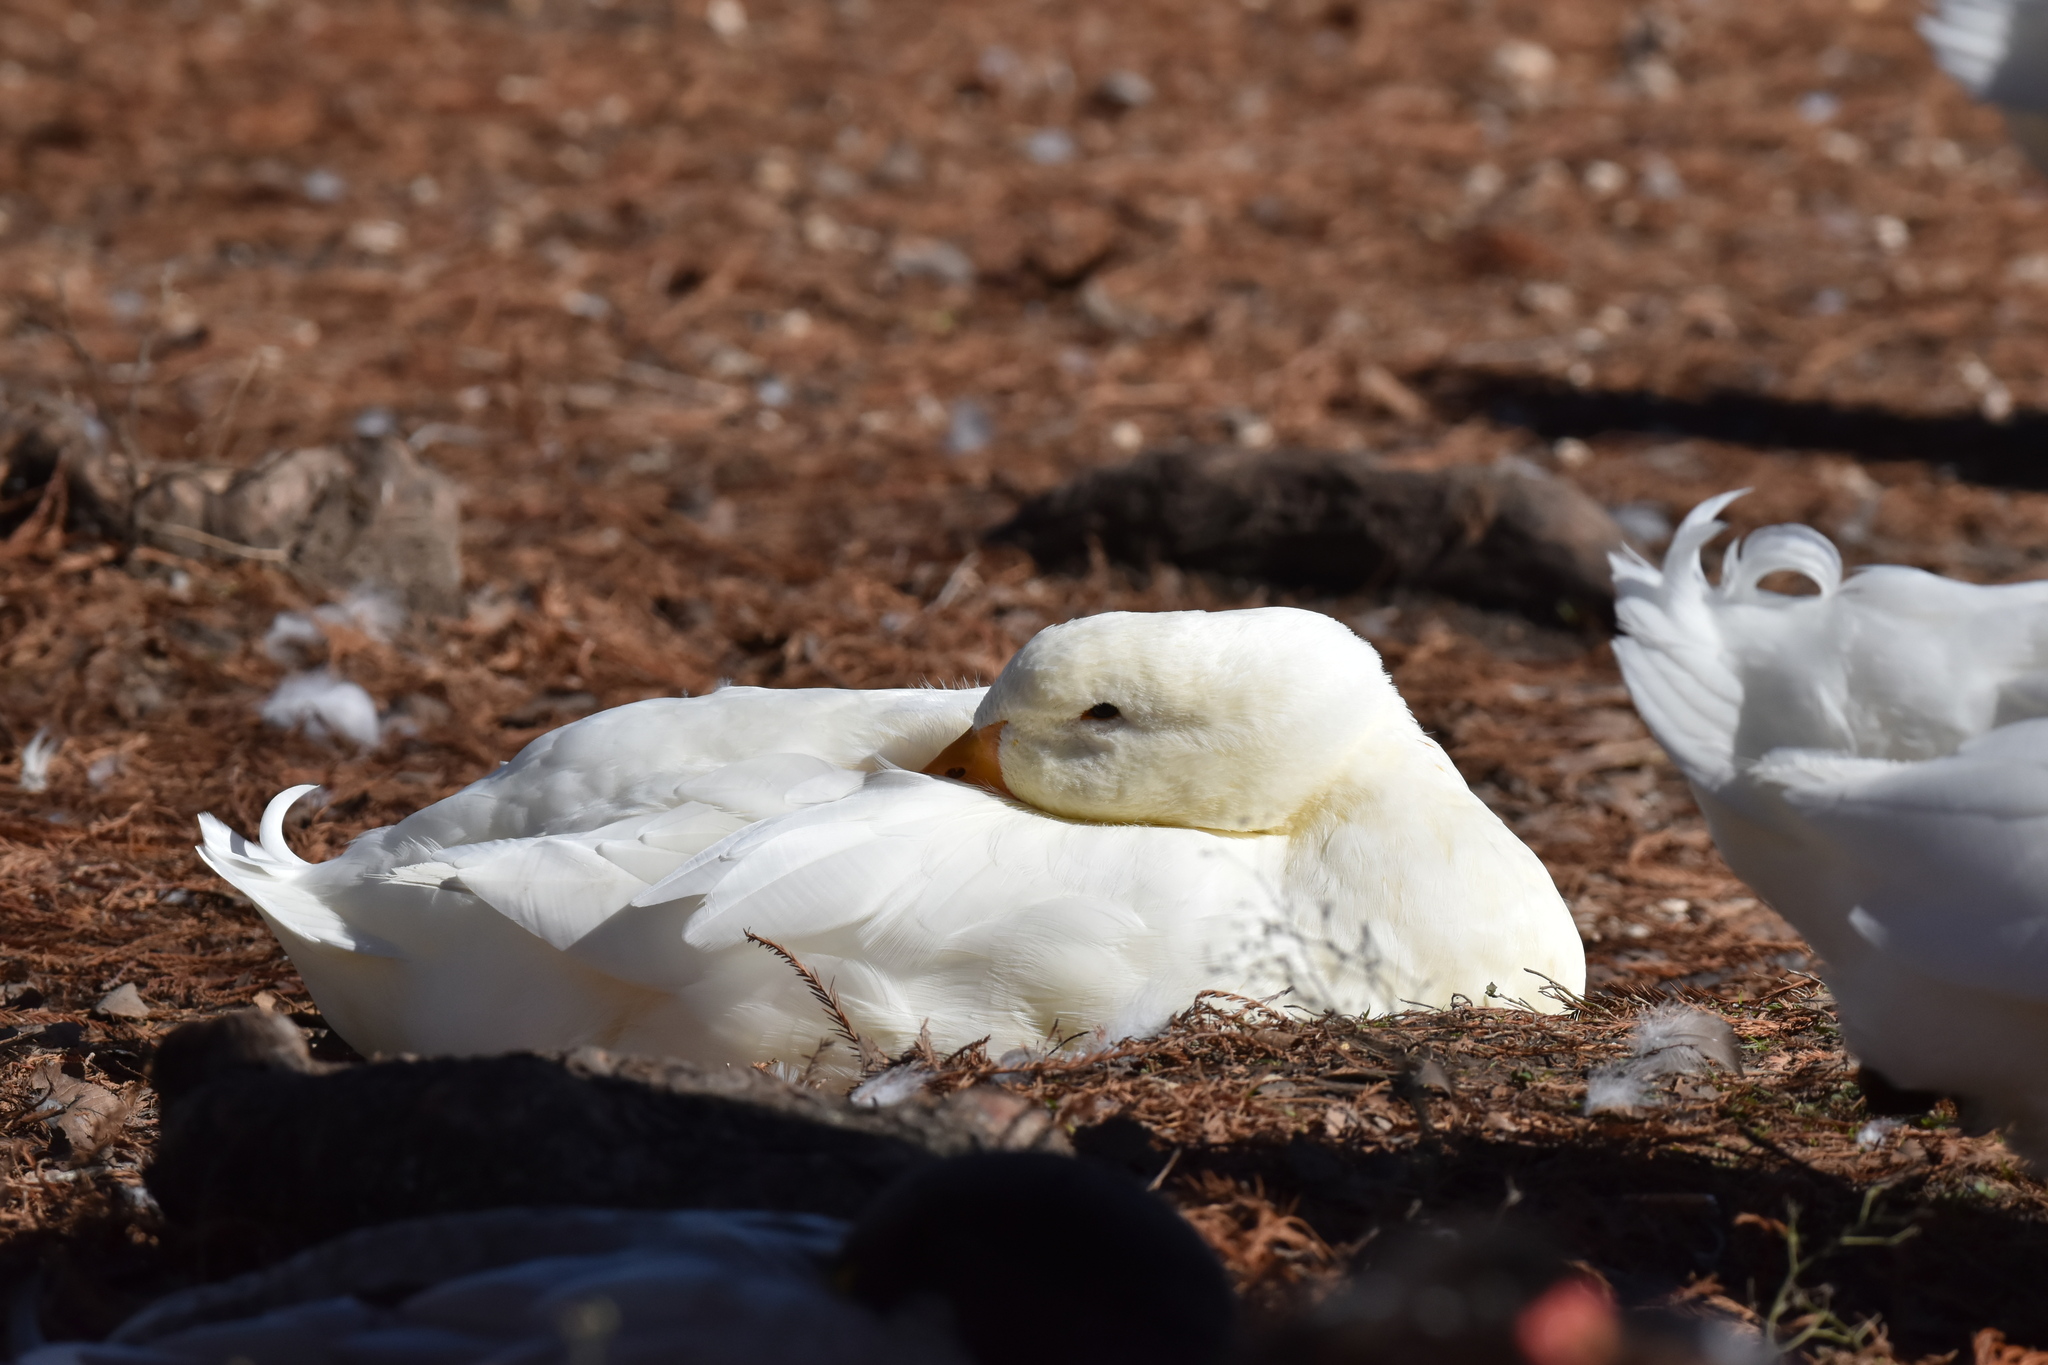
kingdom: Animalia
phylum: Chordata
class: Aves
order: Anseriformes
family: Anatidae
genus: Anas
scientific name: Anas platyrhynchos
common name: Mallard
